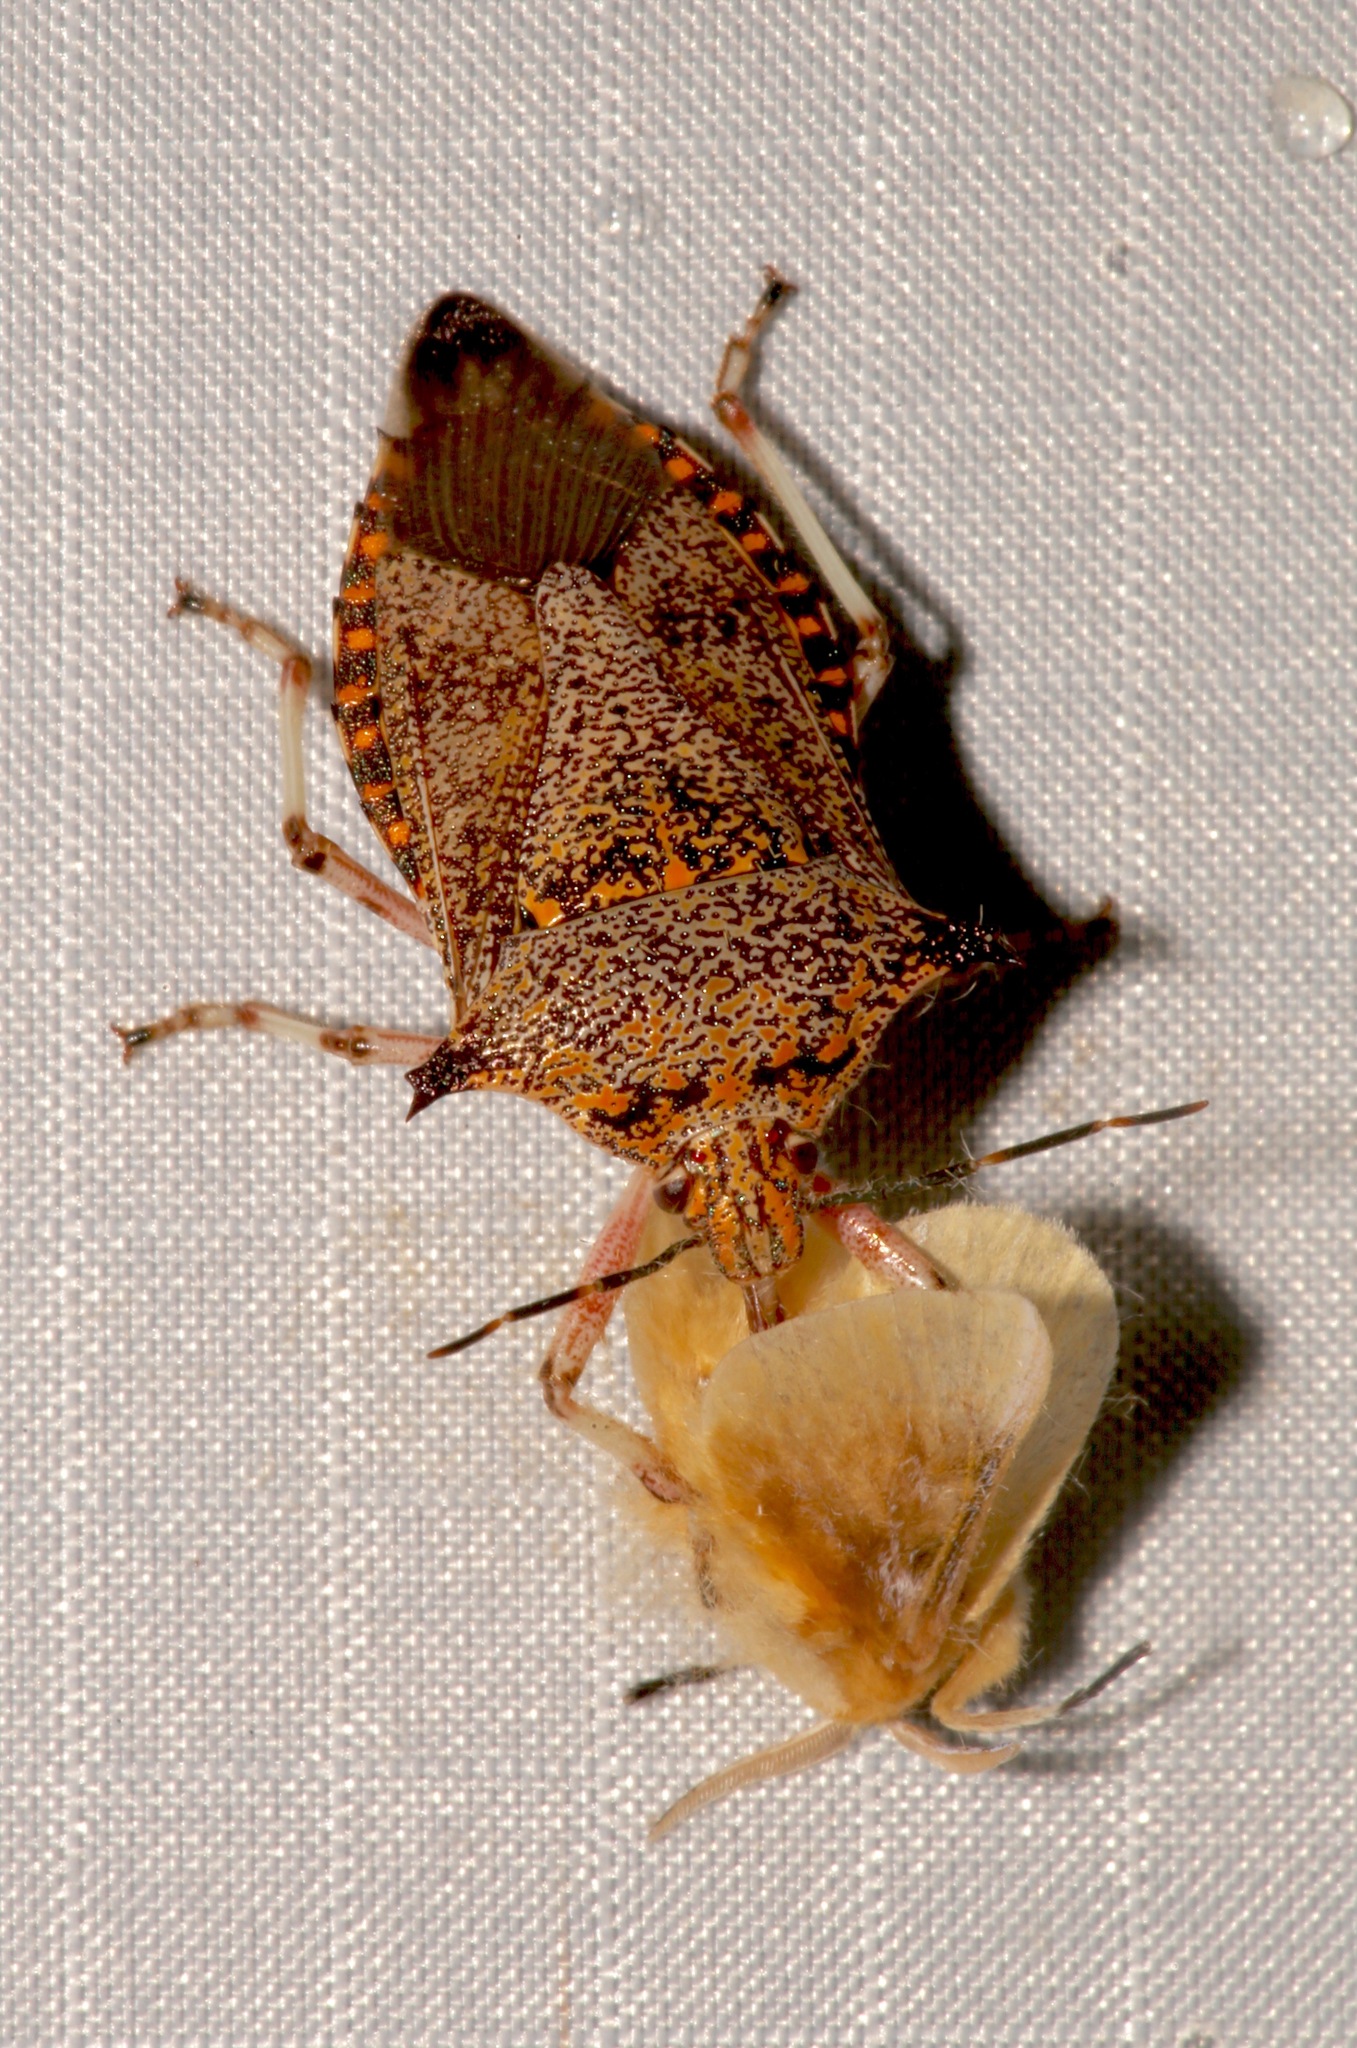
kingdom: Animalia
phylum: Arthropoda
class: Insecta
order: Hemiptera
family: Pentatomidae
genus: Alcaeorrhynchus
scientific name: Alcaeorrhynchus grandis
